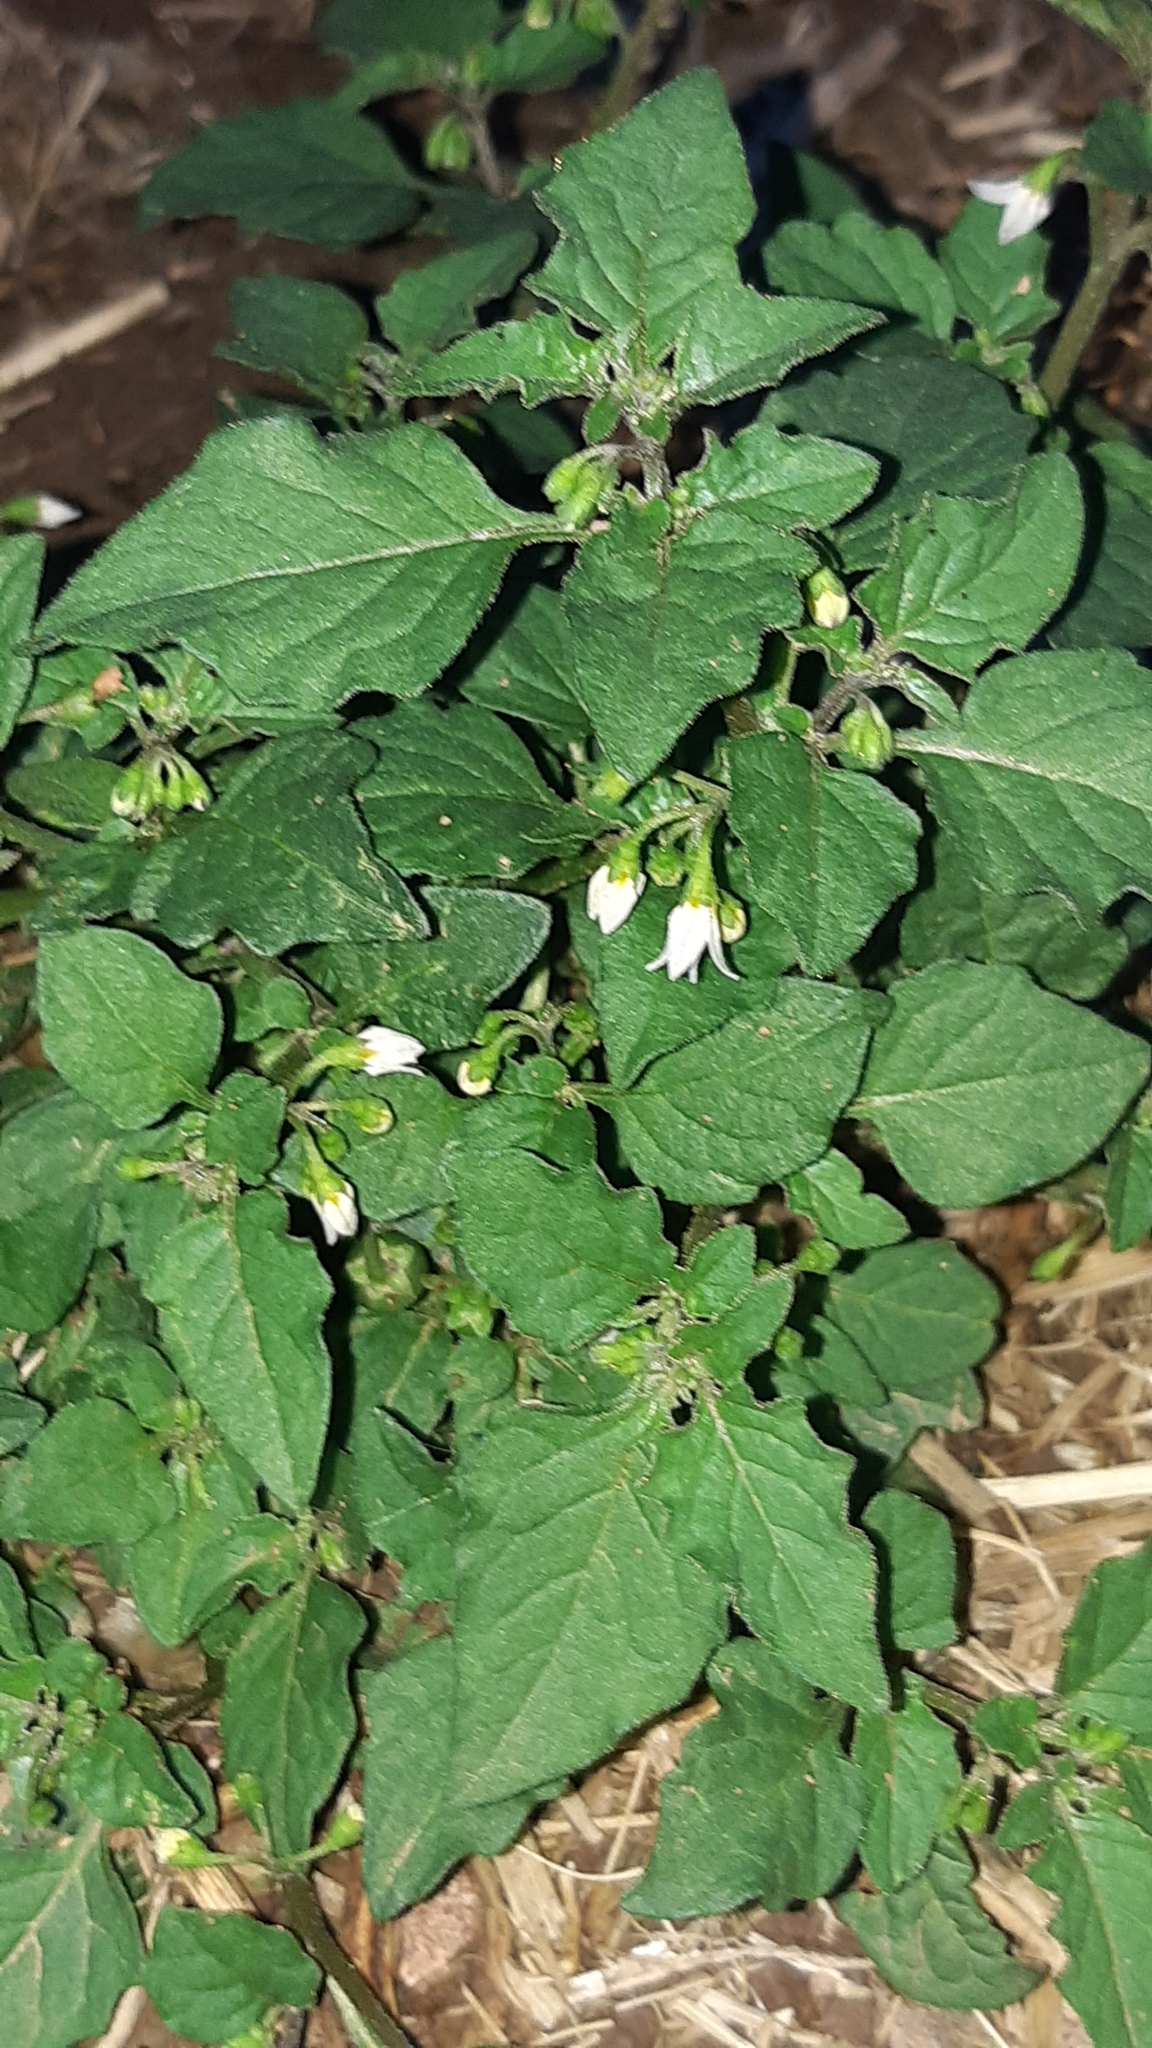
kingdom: Plantae
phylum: Tracheophyta
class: Magnoliopsida
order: Solanales
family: Solanaceae
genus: Solanum
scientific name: Solanum nigrum
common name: Black nightshade
